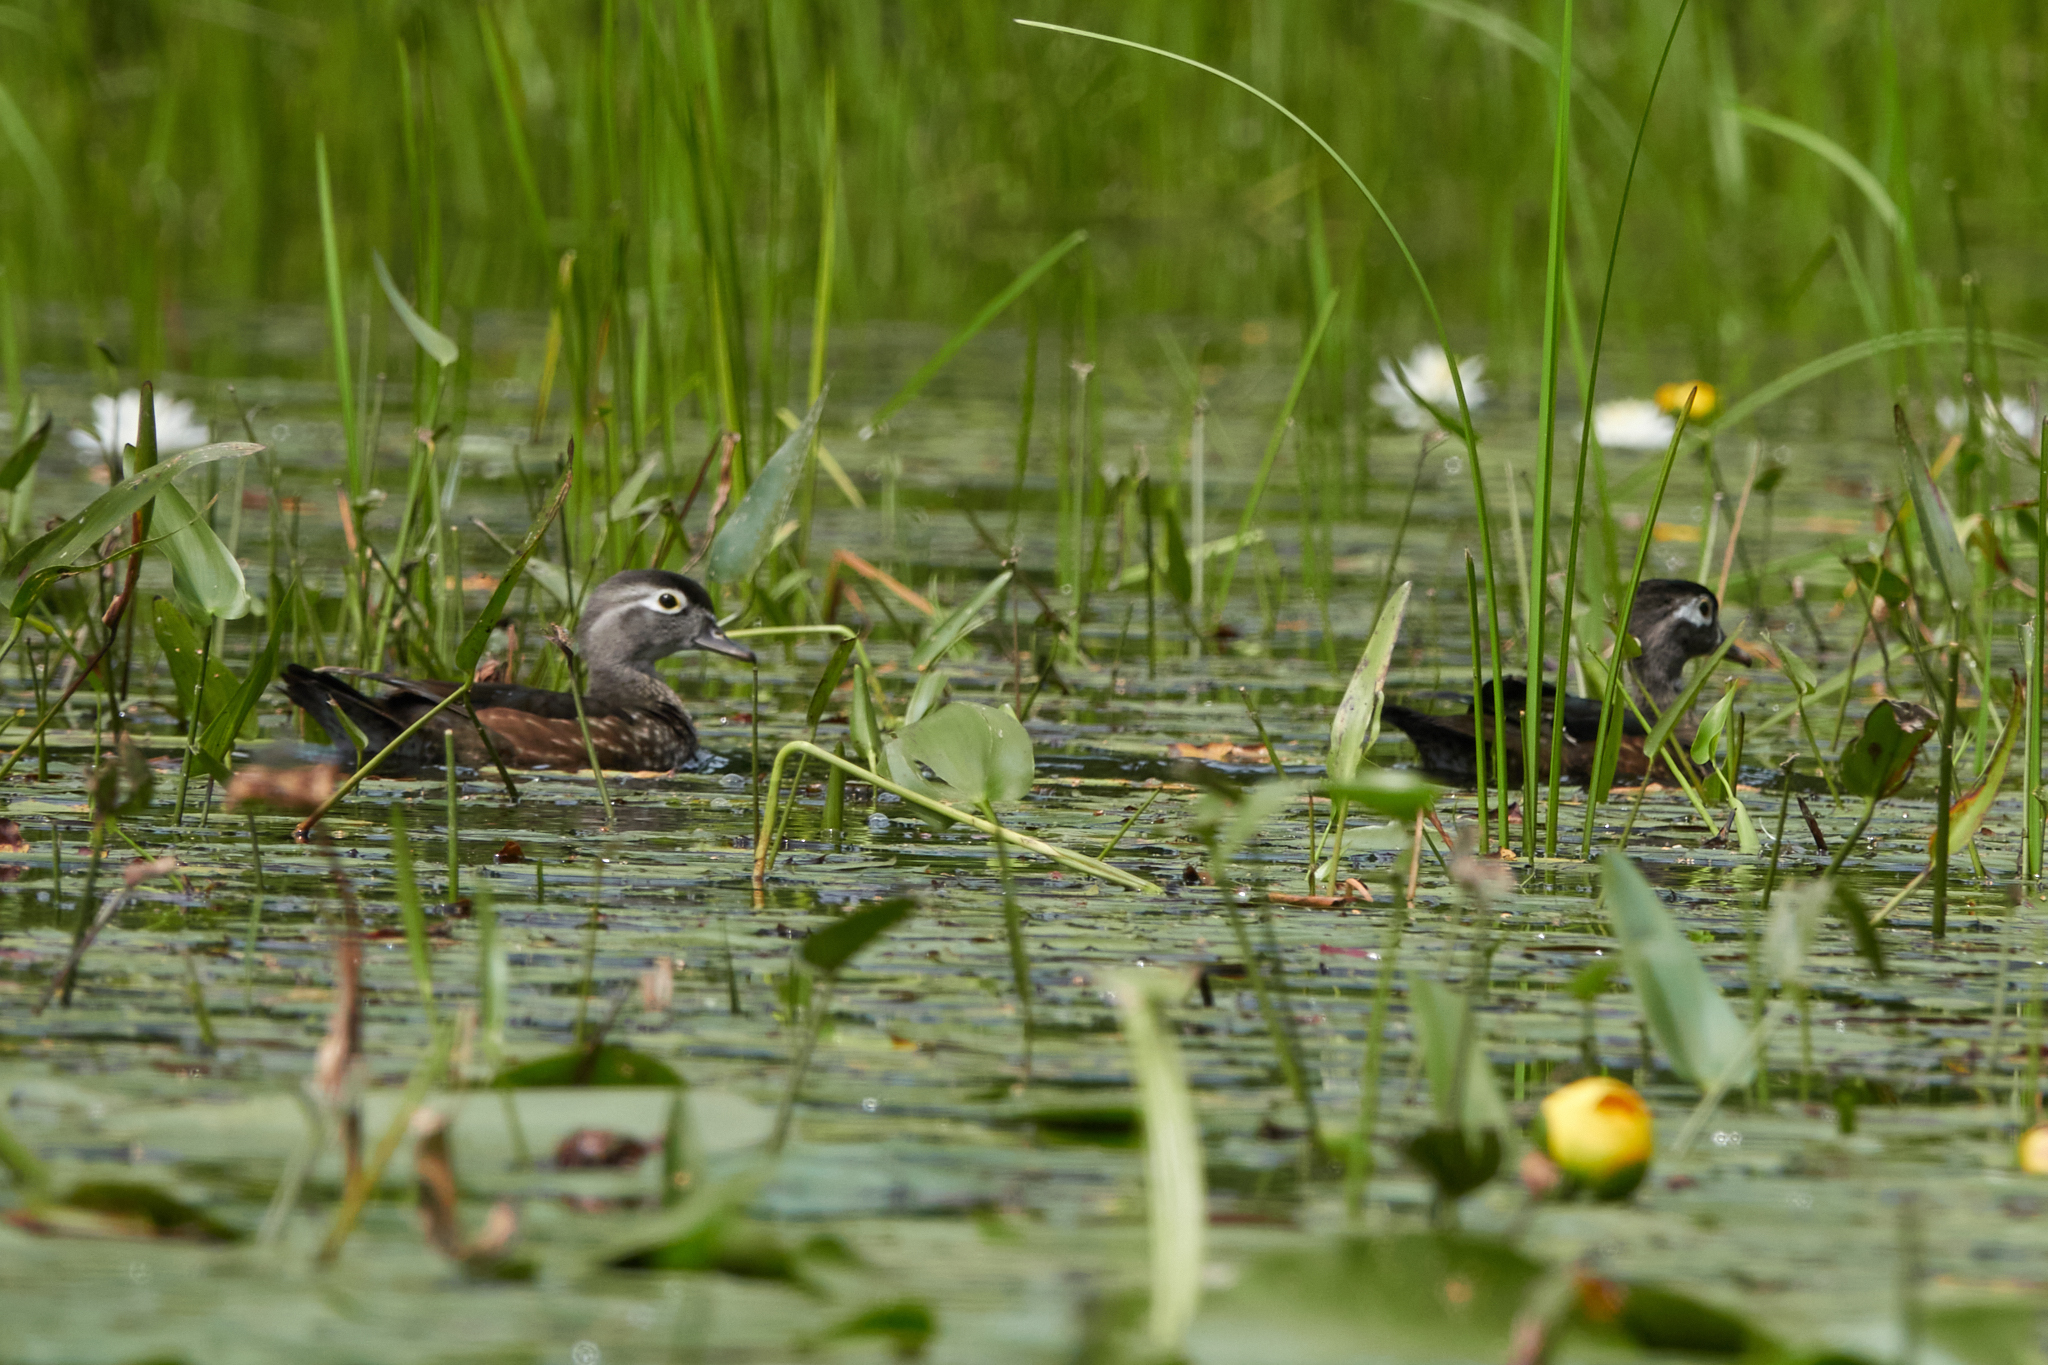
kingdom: Animalia
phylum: Chordata
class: Aves
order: Anseriformes
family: Anatidae
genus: Aix
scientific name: Aix sponsa
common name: Wood duck
